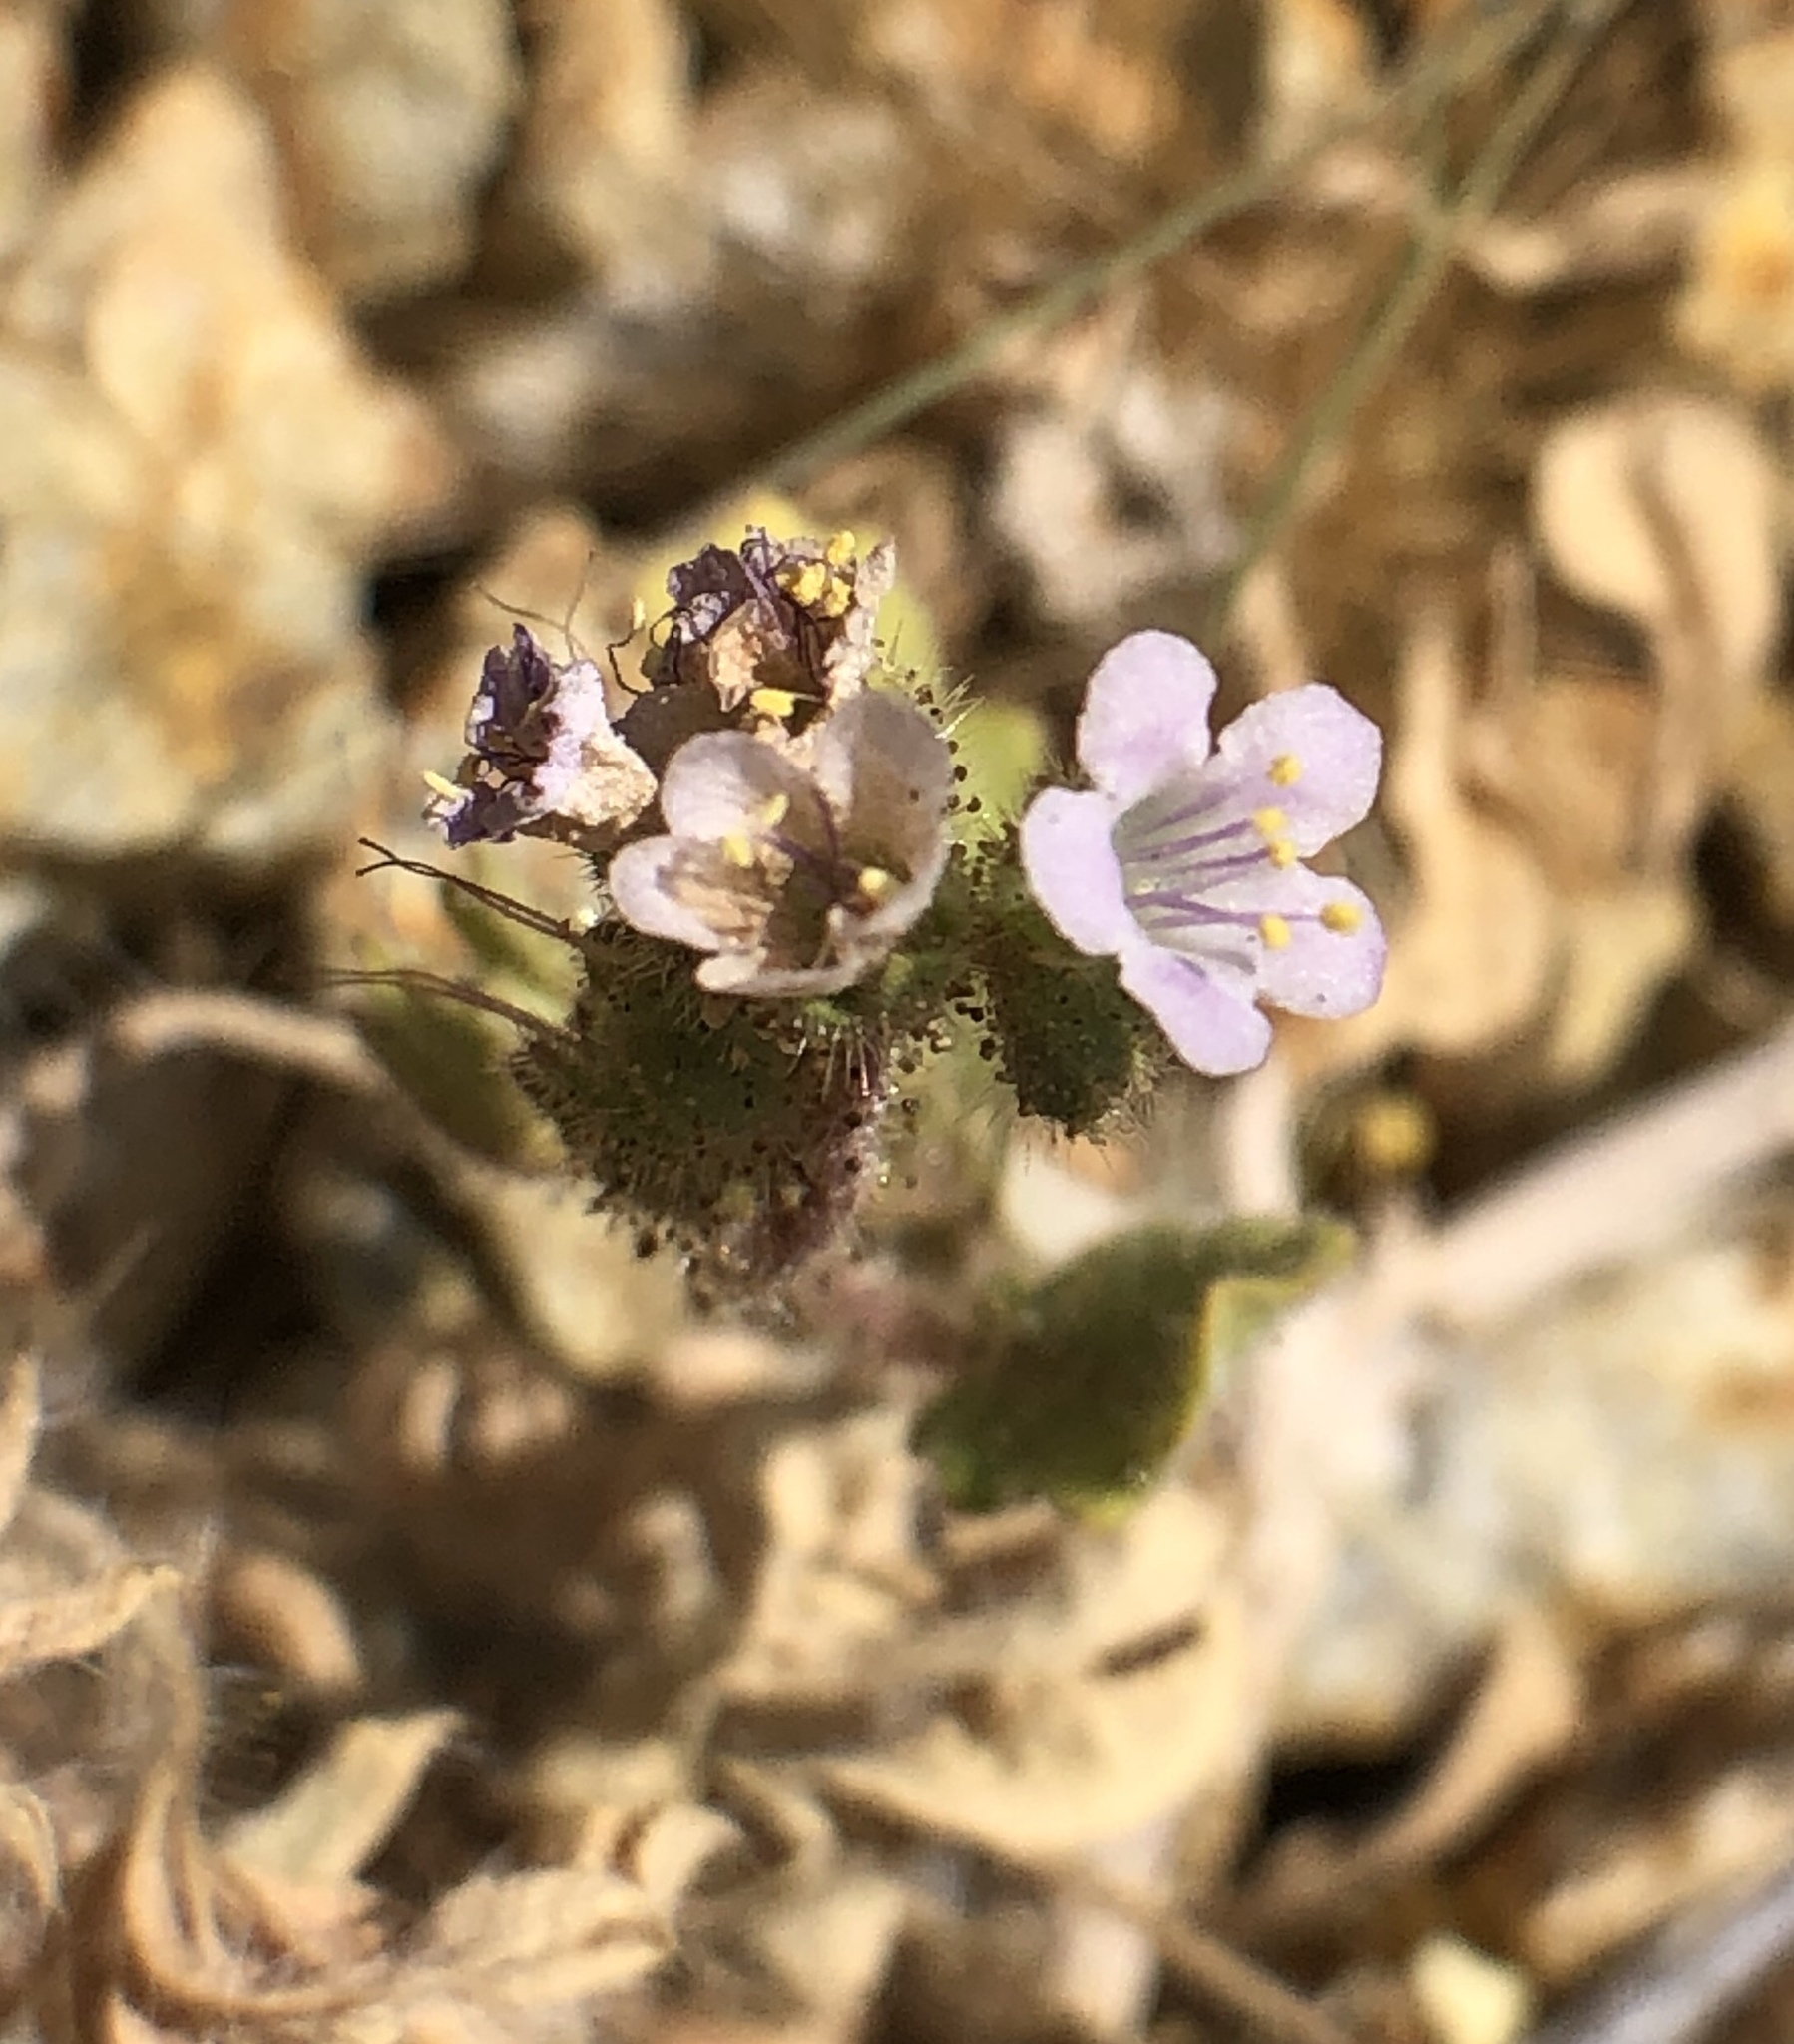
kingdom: Plantae
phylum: Tracheophyta
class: Magnoliopsida
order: Boraginales
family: Hydrophyllaceae
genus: Phacelia
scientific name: Phacelia crenulata
